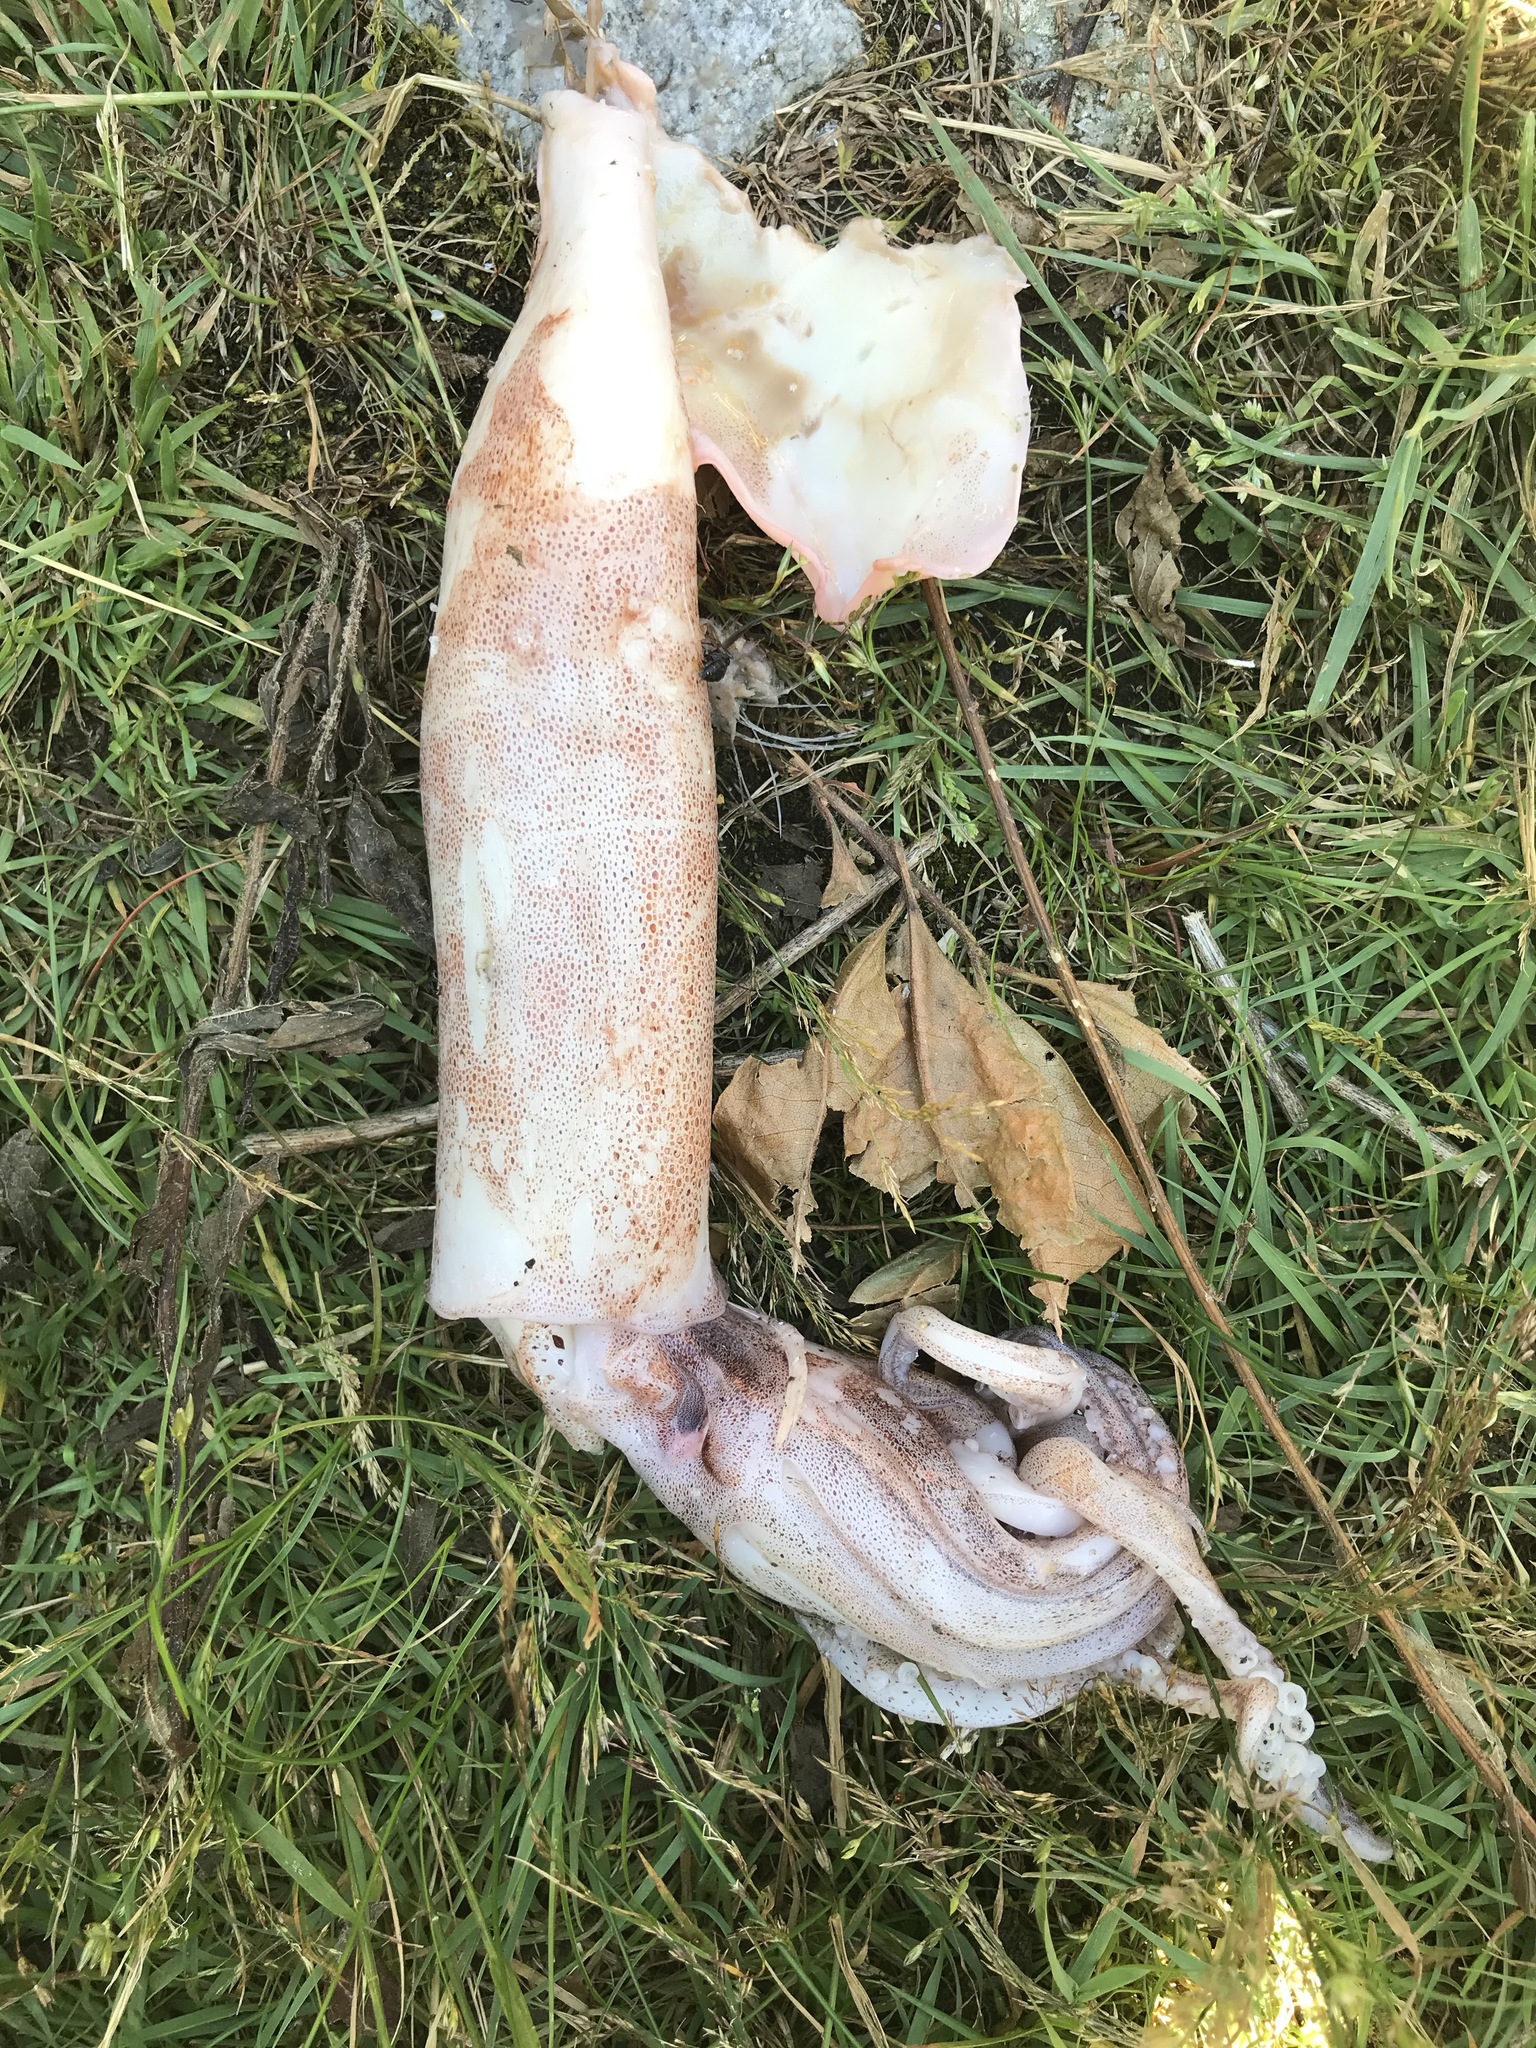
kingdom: Animalia
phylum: Mollusca
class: Cephalopoda
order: Oegopsida
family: Ommastrephidae
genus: Illex
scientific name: Illex illecebrosus
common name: Boreal squid
